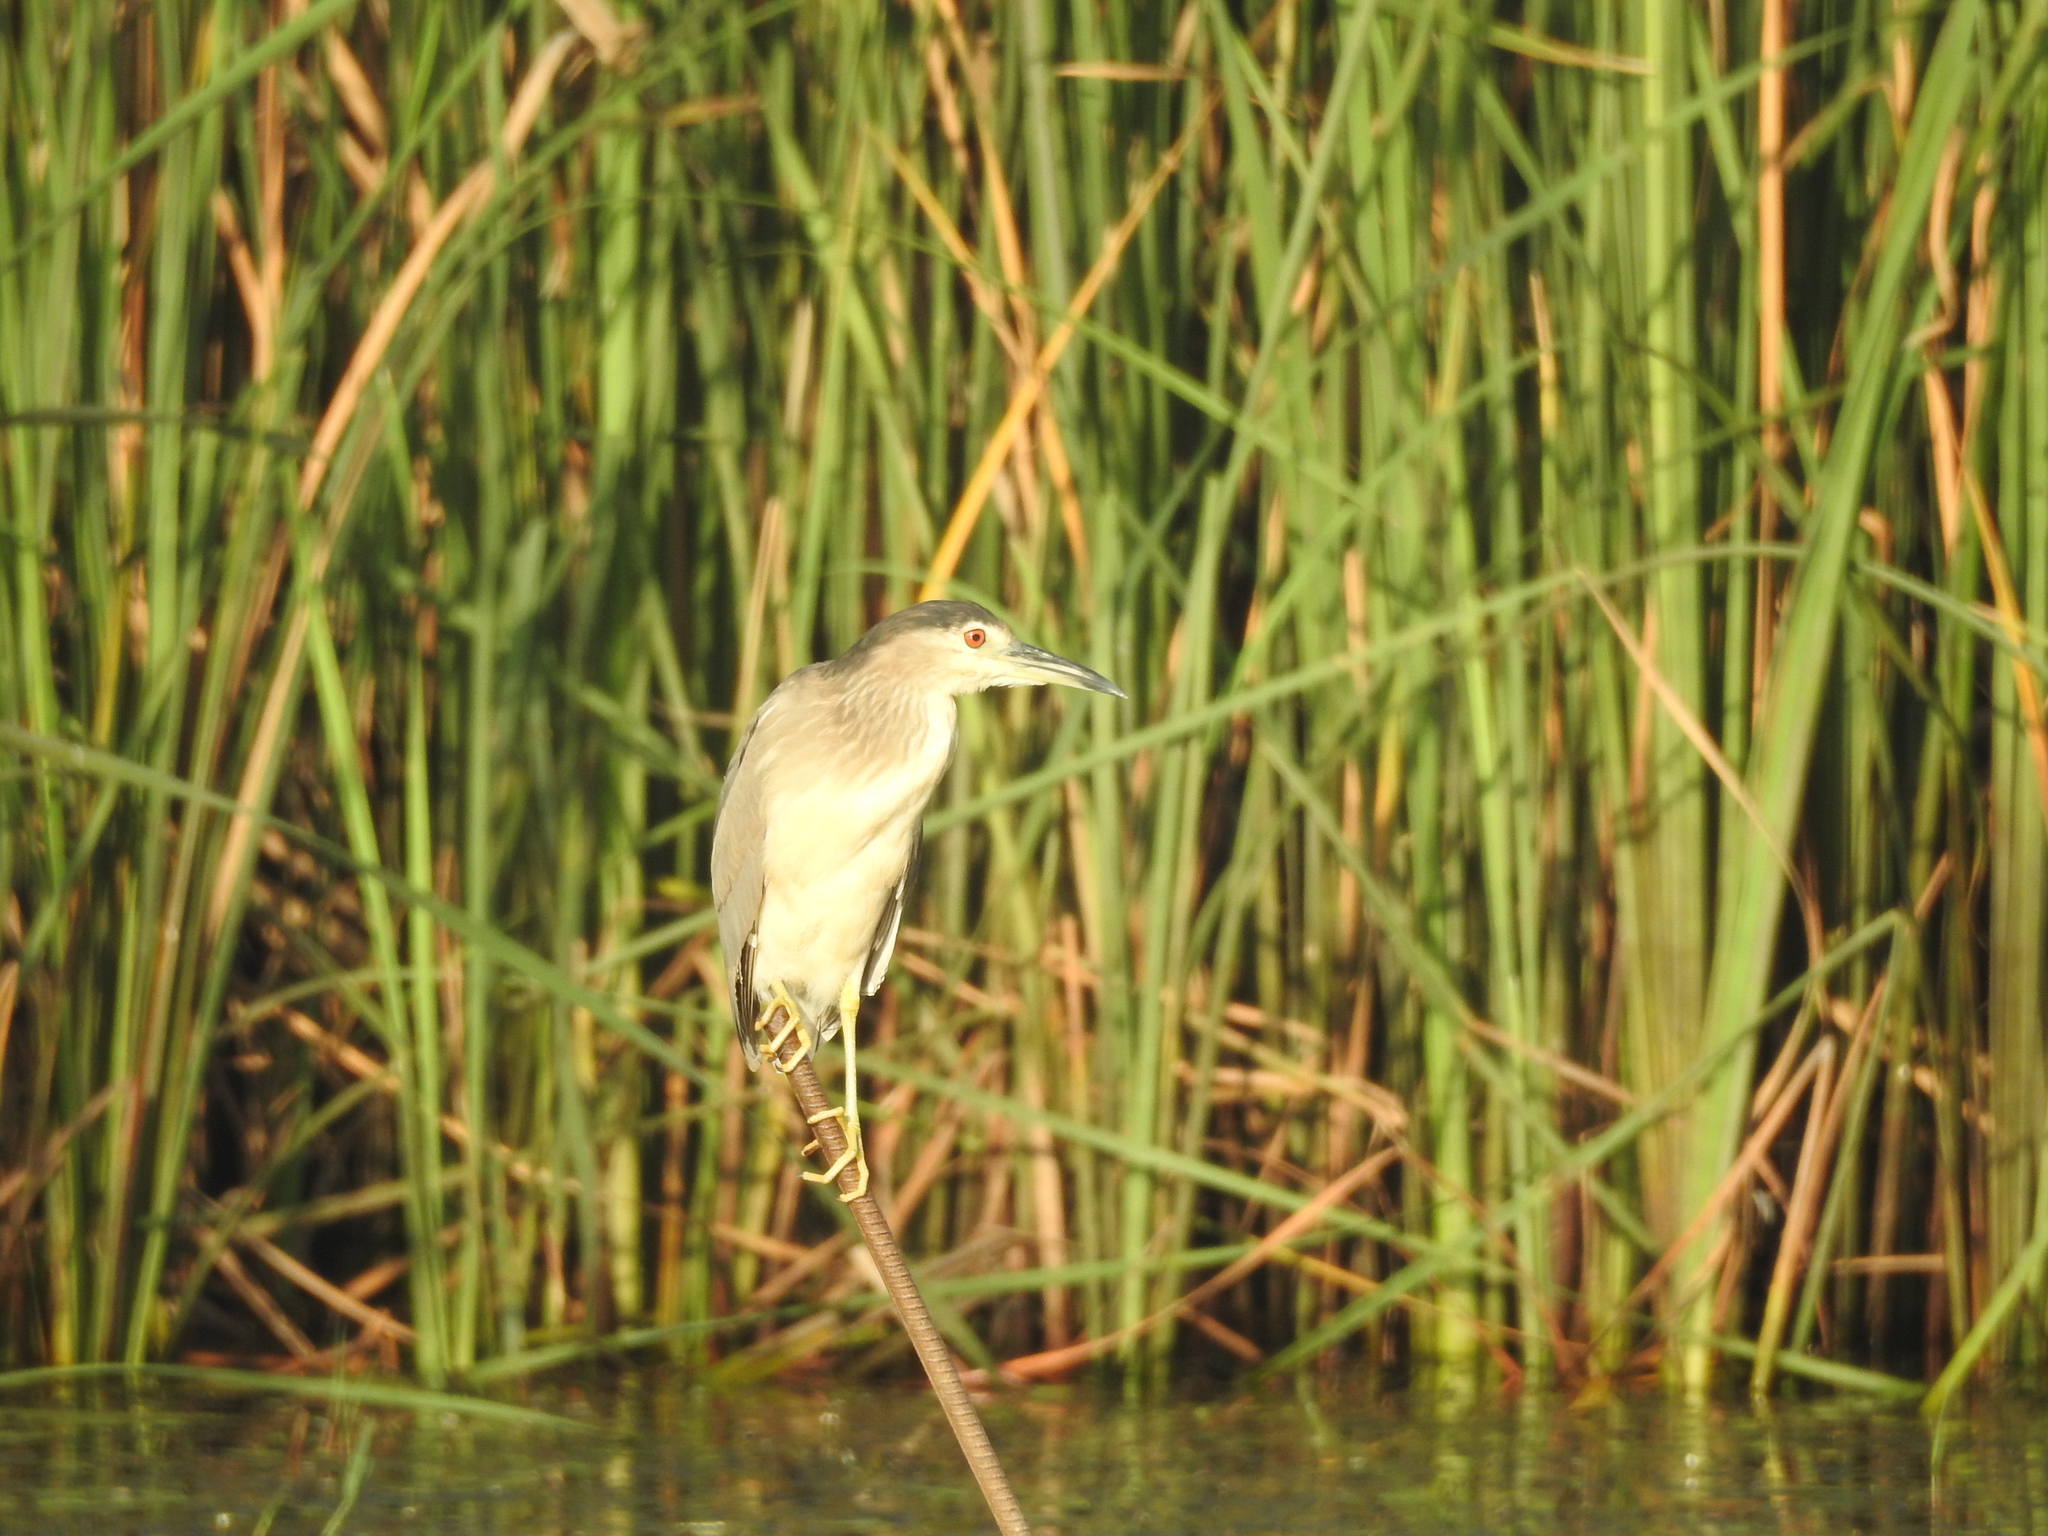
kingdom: Animalia
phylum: Chordata
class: Aves
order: Pelecaniformes
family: Ardeidae
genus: Nycticorax
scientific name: Nycticorax nycticorax
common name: Black-crowned night heron
